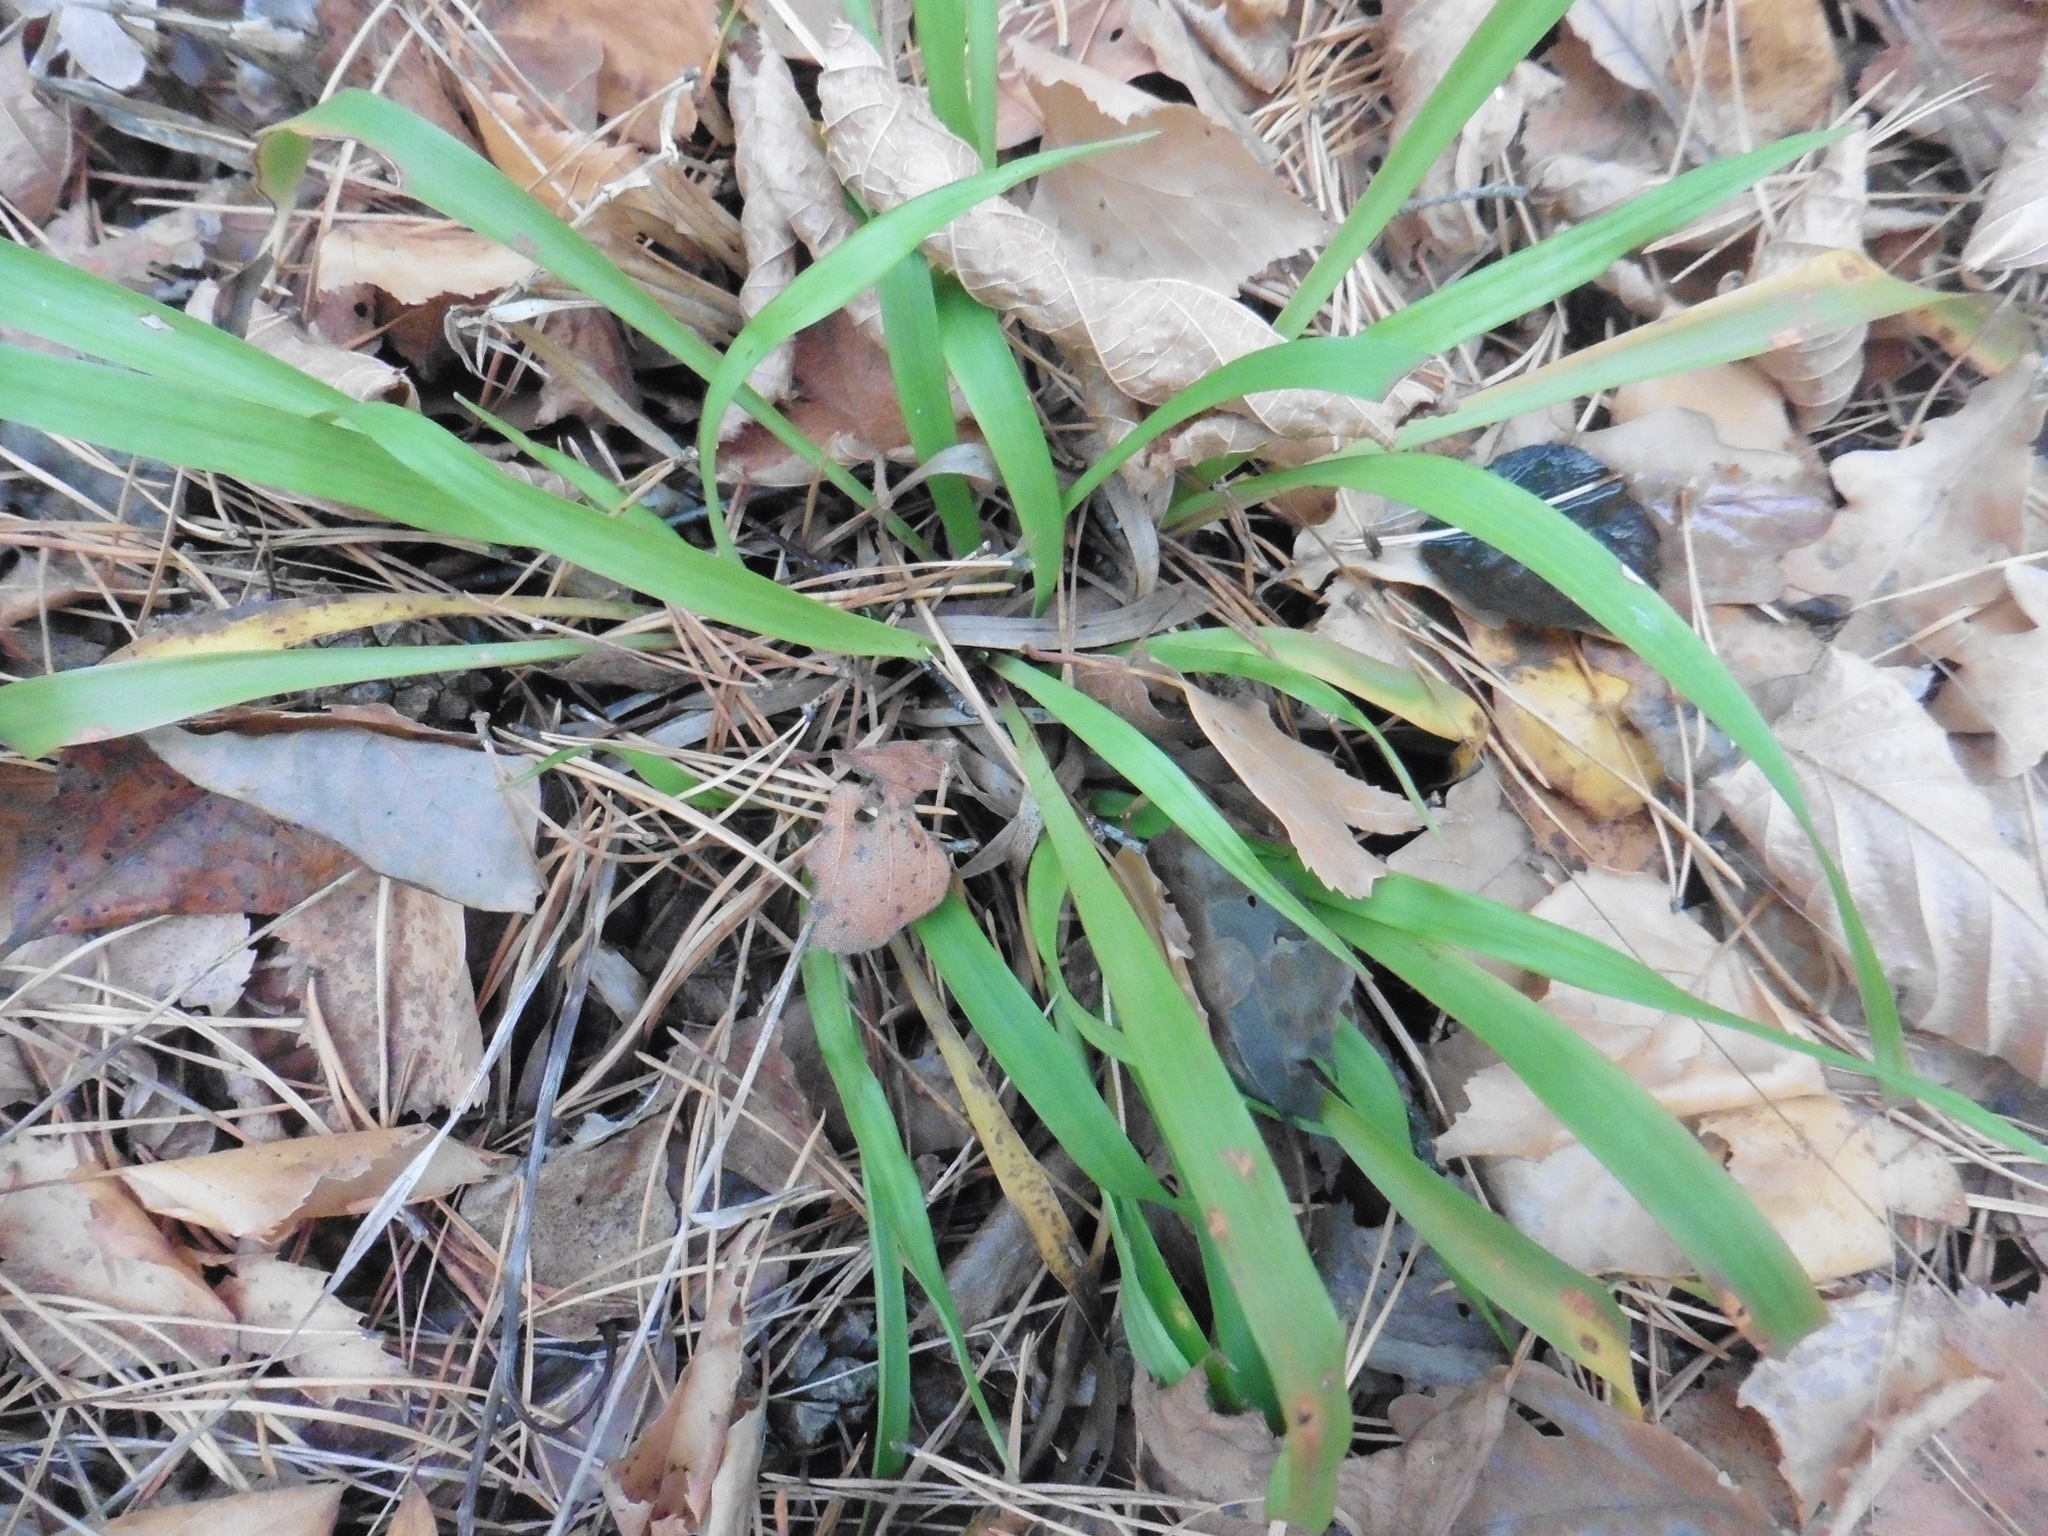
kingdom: Plantae
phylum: Tracheophyta
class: Liliopsida
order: Poales
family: Juncaceae
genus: Luzula
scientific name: Luzula pilosa
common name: Hairy wood-rush
